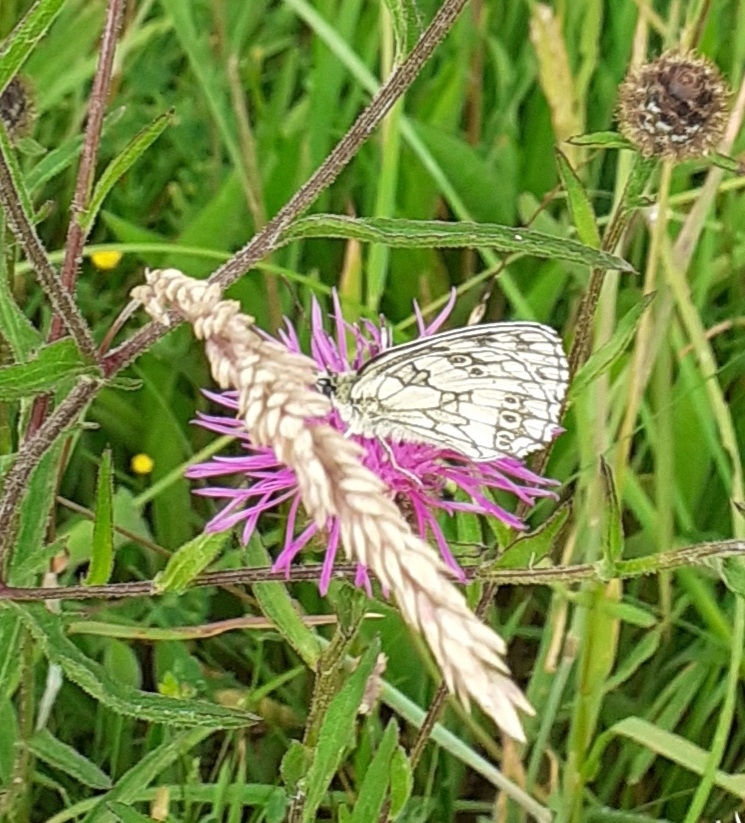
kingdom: Animalia
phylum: Arthropoda
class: Insecta
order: Lepidoptera
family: Nymphalidae
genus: Melanargia
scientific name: Melanargia galathea
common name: Marbled white
